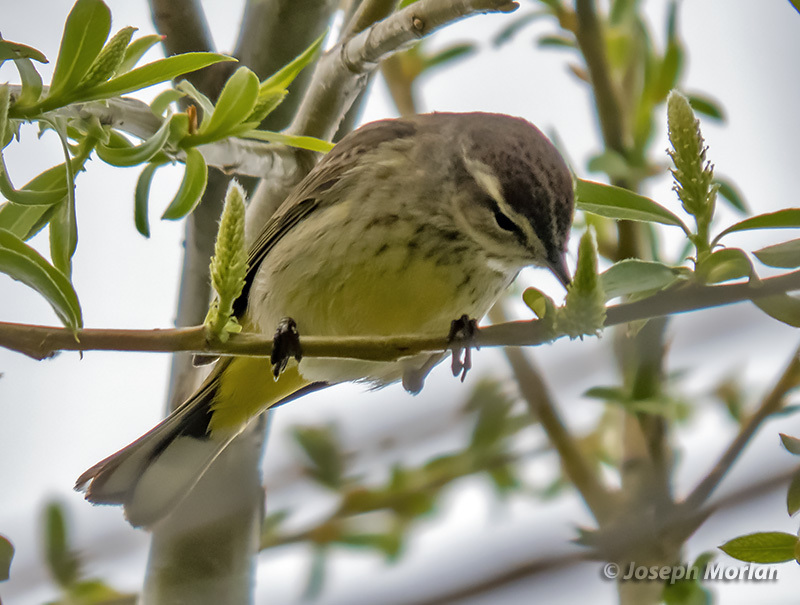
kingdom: Animalia
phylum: Chordata
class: Aves
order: Passeriformes
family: Parulidae
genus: Setophaga
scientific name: Setophaga palmarum
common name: Palm warbler
